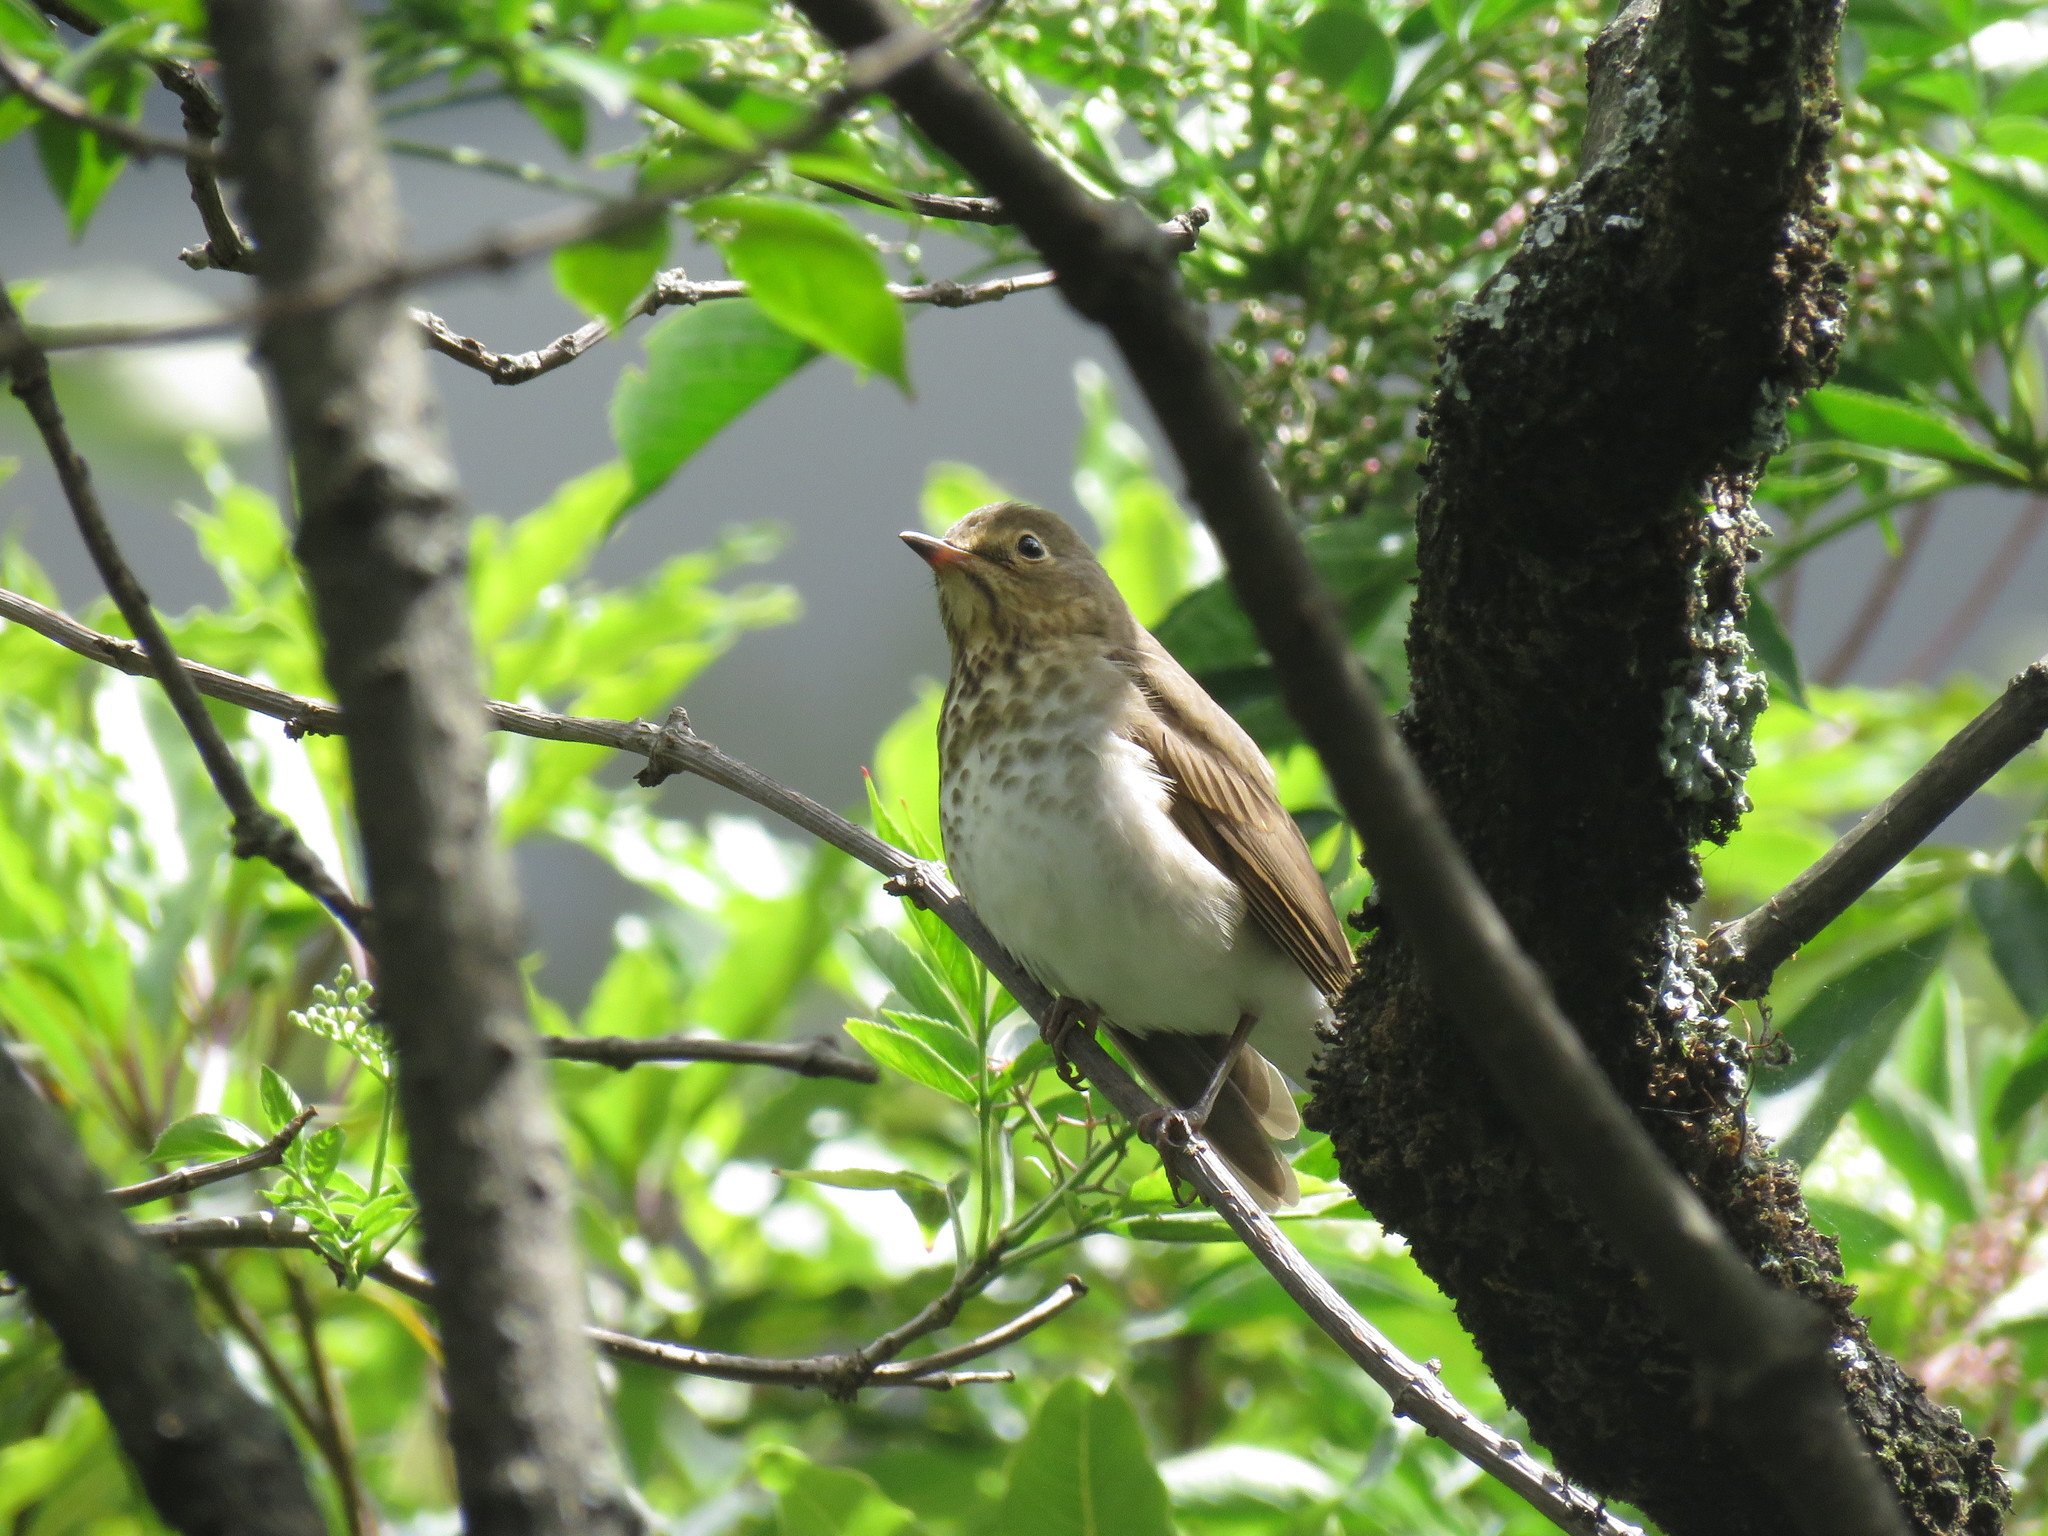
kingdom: Animalia
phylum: Chordata
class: Aves
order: Passeriformes
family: Turdidae
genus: Catharus
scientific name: Catharus ustulatus
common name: Swainson's thrush
